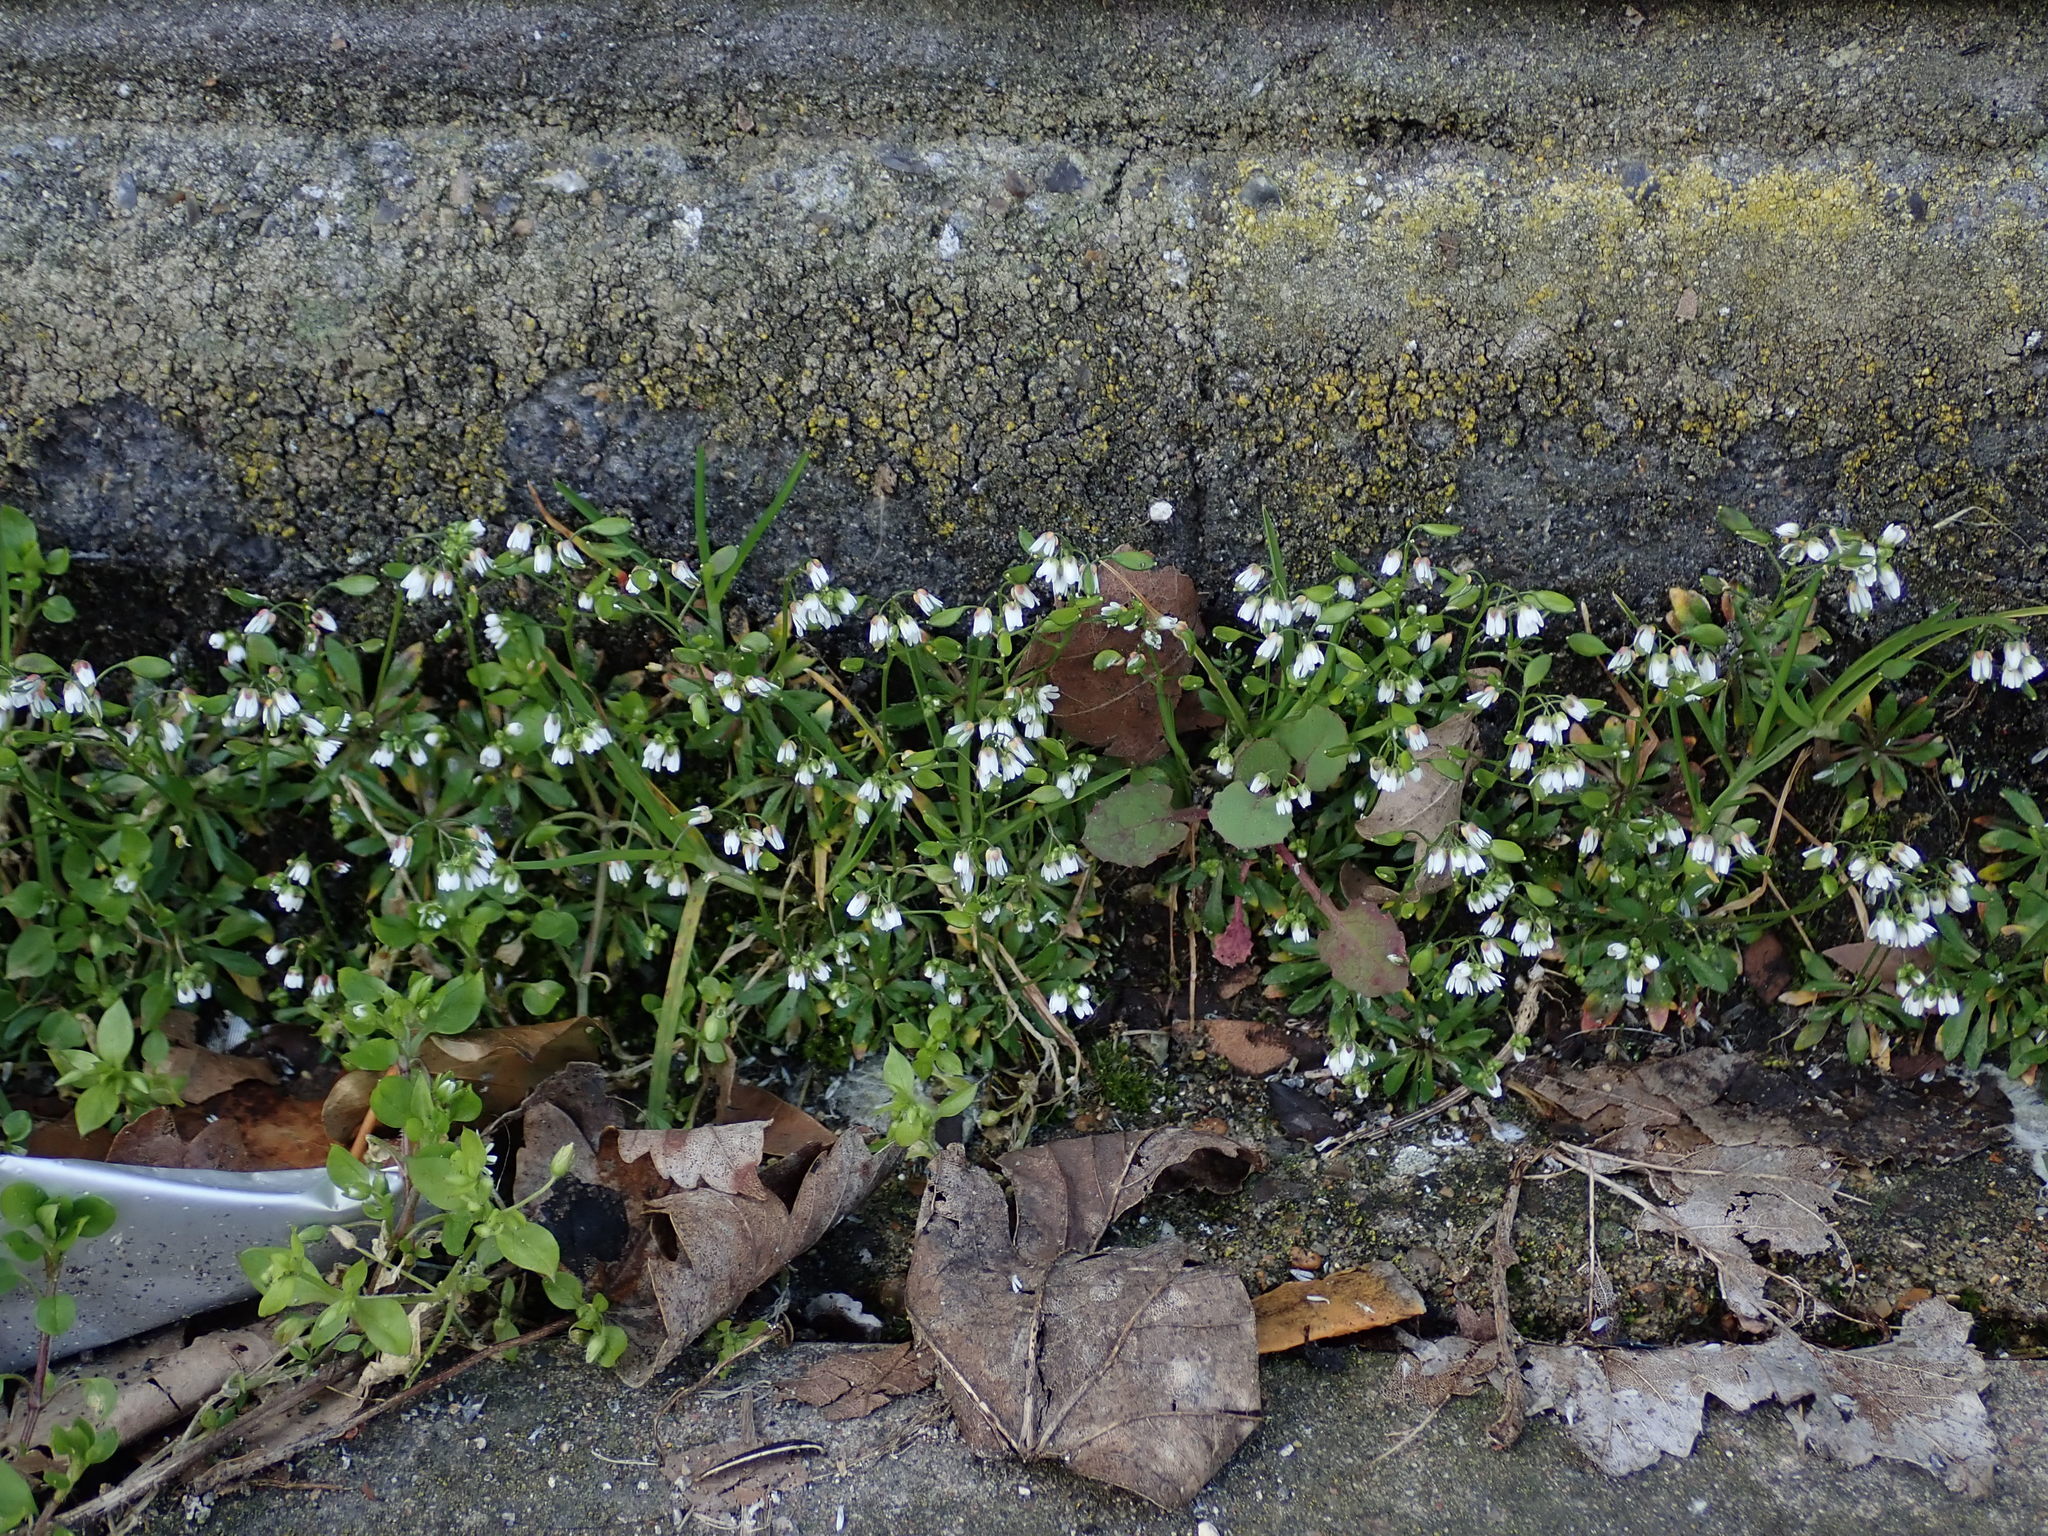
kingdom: Plantae
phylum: Tracheophyta
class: Magnoliopsida
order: Brassicales
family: Brassicaceae
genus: Draba
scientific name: Draba verna
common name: Spring draba
